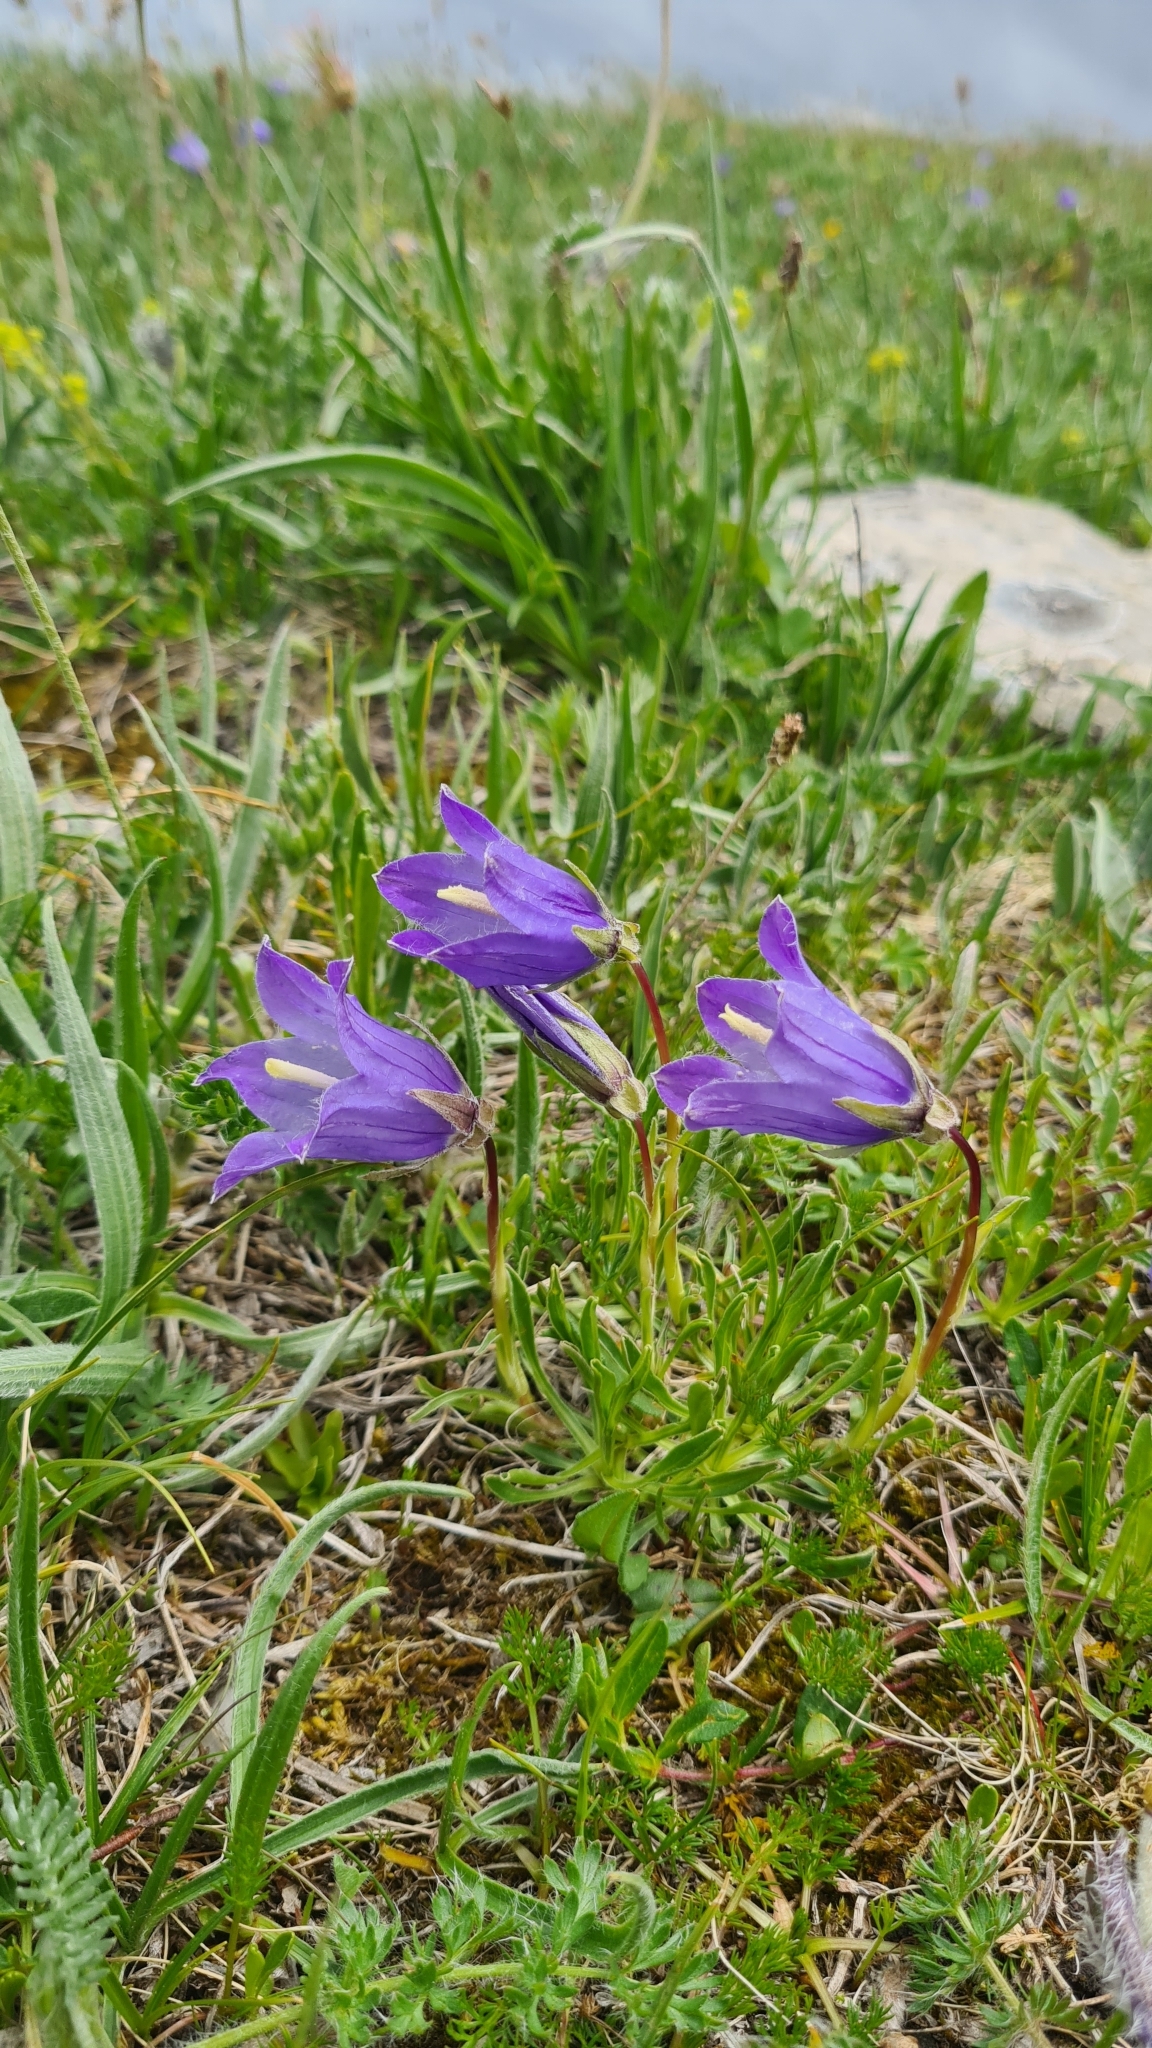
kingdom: Plantae
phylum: Tracheophyta
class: Magnoliopsida
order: Asterales
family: Campanulaceae
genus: Campanula
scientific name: Campanula tridentata
